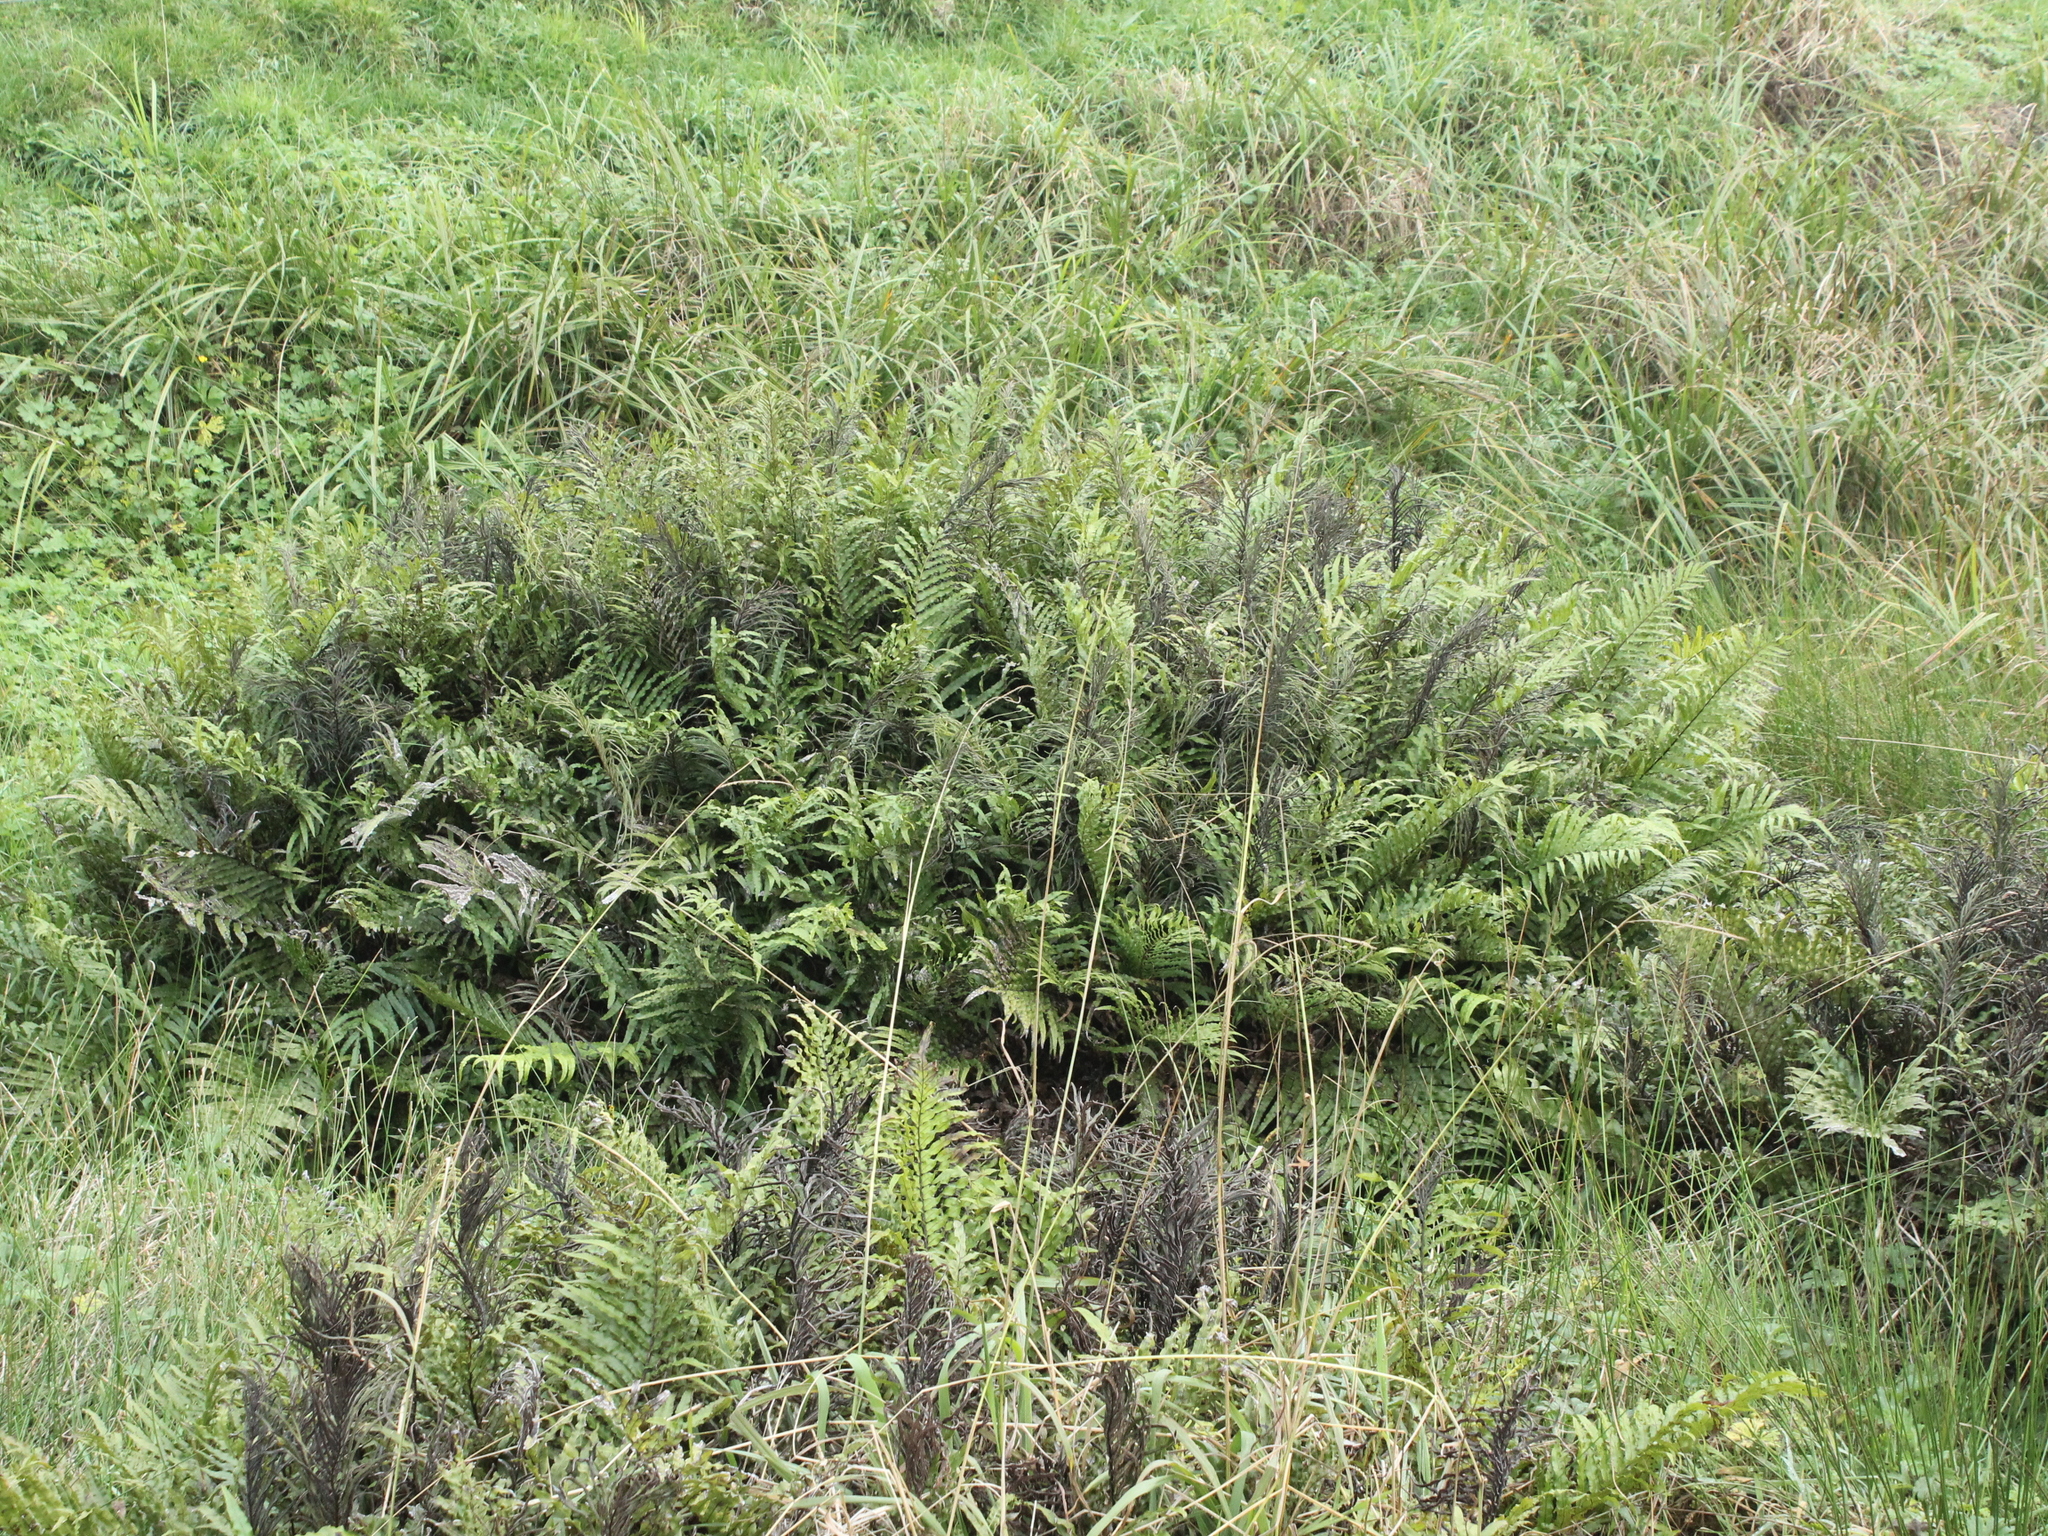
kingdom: Plantae
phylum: Tracheophyta
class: Polypodiopsida
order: Polypodiales
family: Blechnaceae
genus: Parablechnum
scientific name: Parablechnum minus
